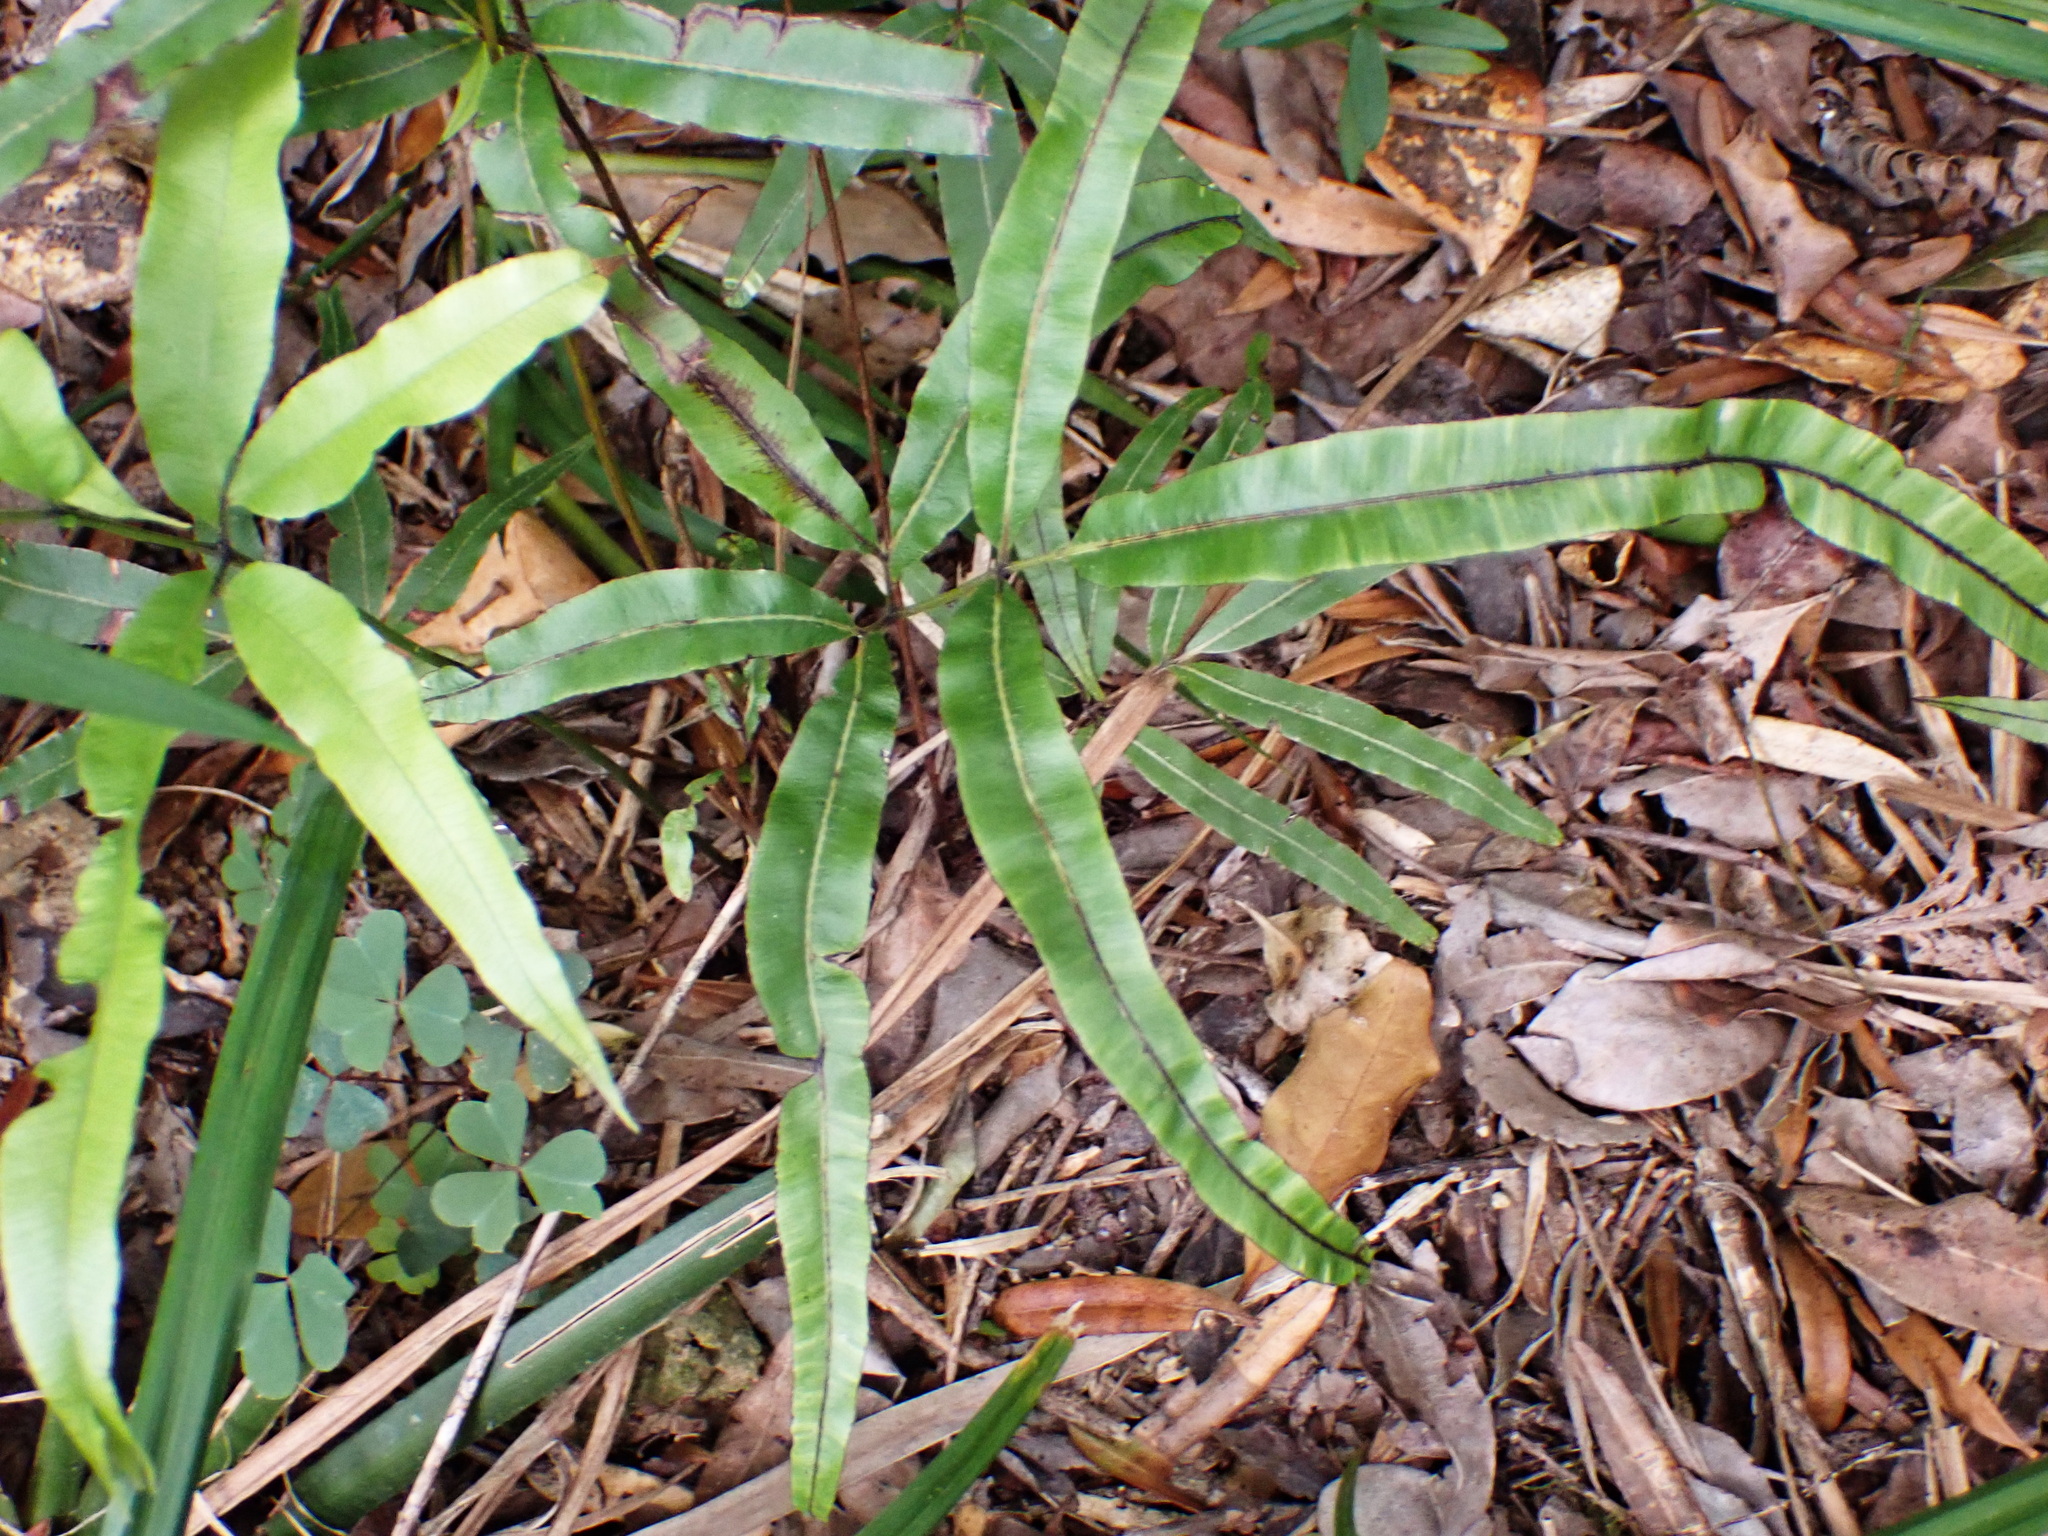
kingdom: Plantae
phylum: Tracheophyta
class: Polypodiopsida
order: Polypodiales
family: Pteridaceae
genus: Pteris
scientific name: Pteris cretica
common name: Ribbon fern
